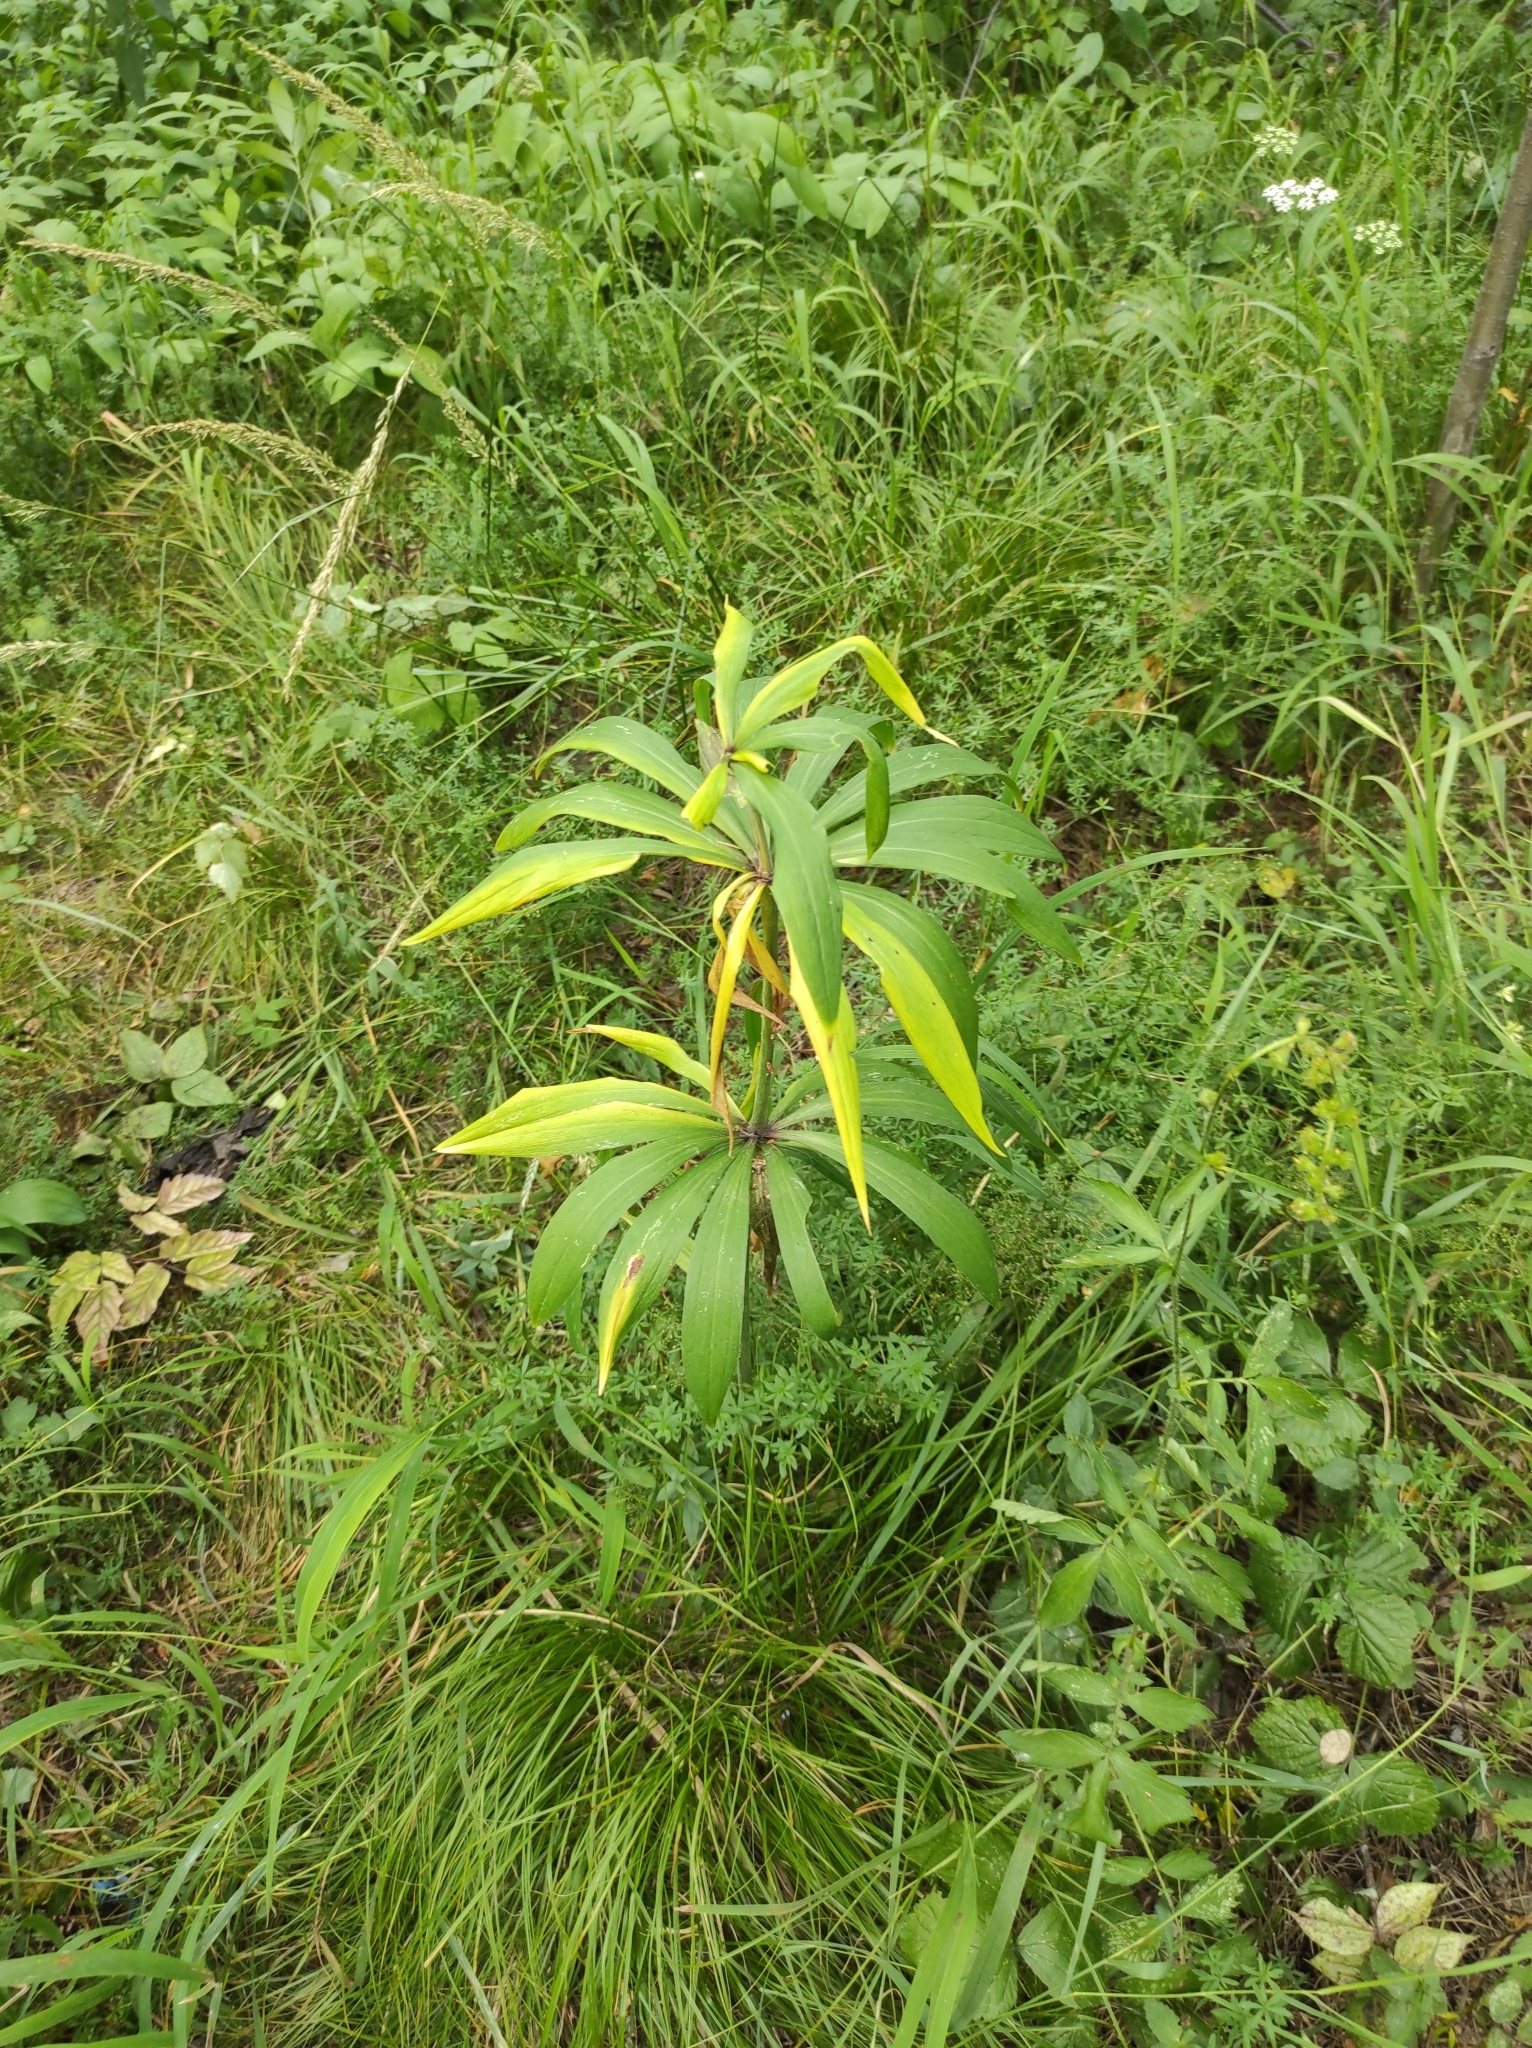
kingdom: Plantae
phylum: Tracheophyta
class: Liliopsida
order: Liliales
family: Liliaceae
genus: Lilium
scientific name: Lilium martagon
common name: Martagon lily
